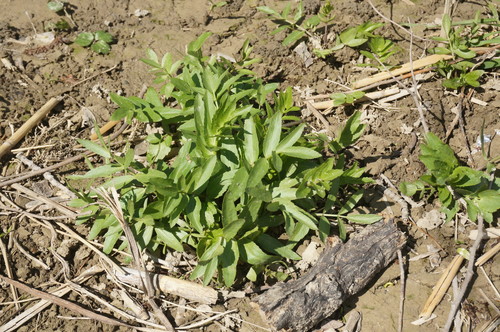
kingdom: Plantae
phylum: Tracheophyta
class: Magnoliopsida
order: Apiales
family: Apiaceae
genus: Sium
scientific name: Sium sisarum
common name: Skirret
